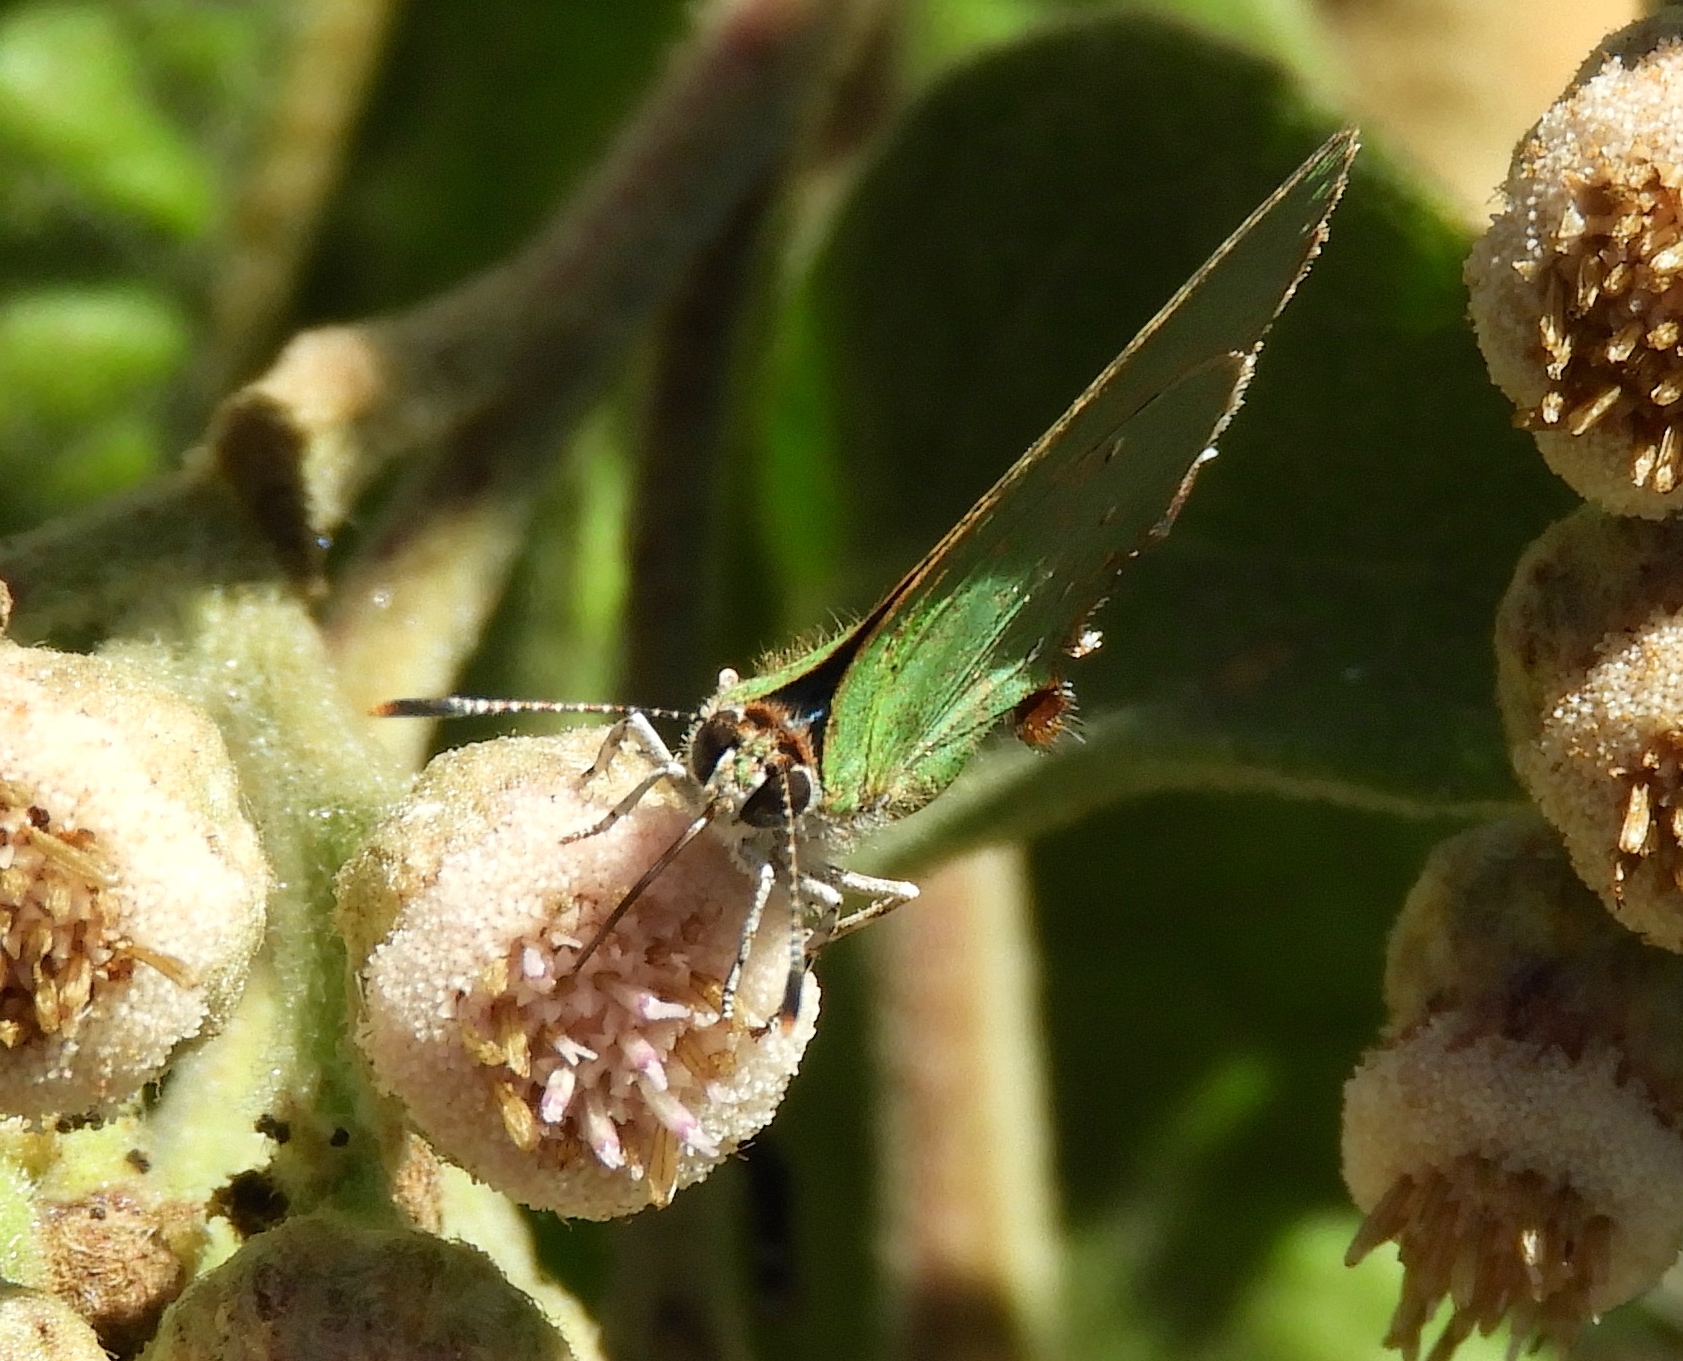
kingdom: Animalia
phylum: Arthropoda
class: Insecta
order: Lepidoptera
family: Lycaenidae
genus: Callophrys
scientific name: Callophrys
